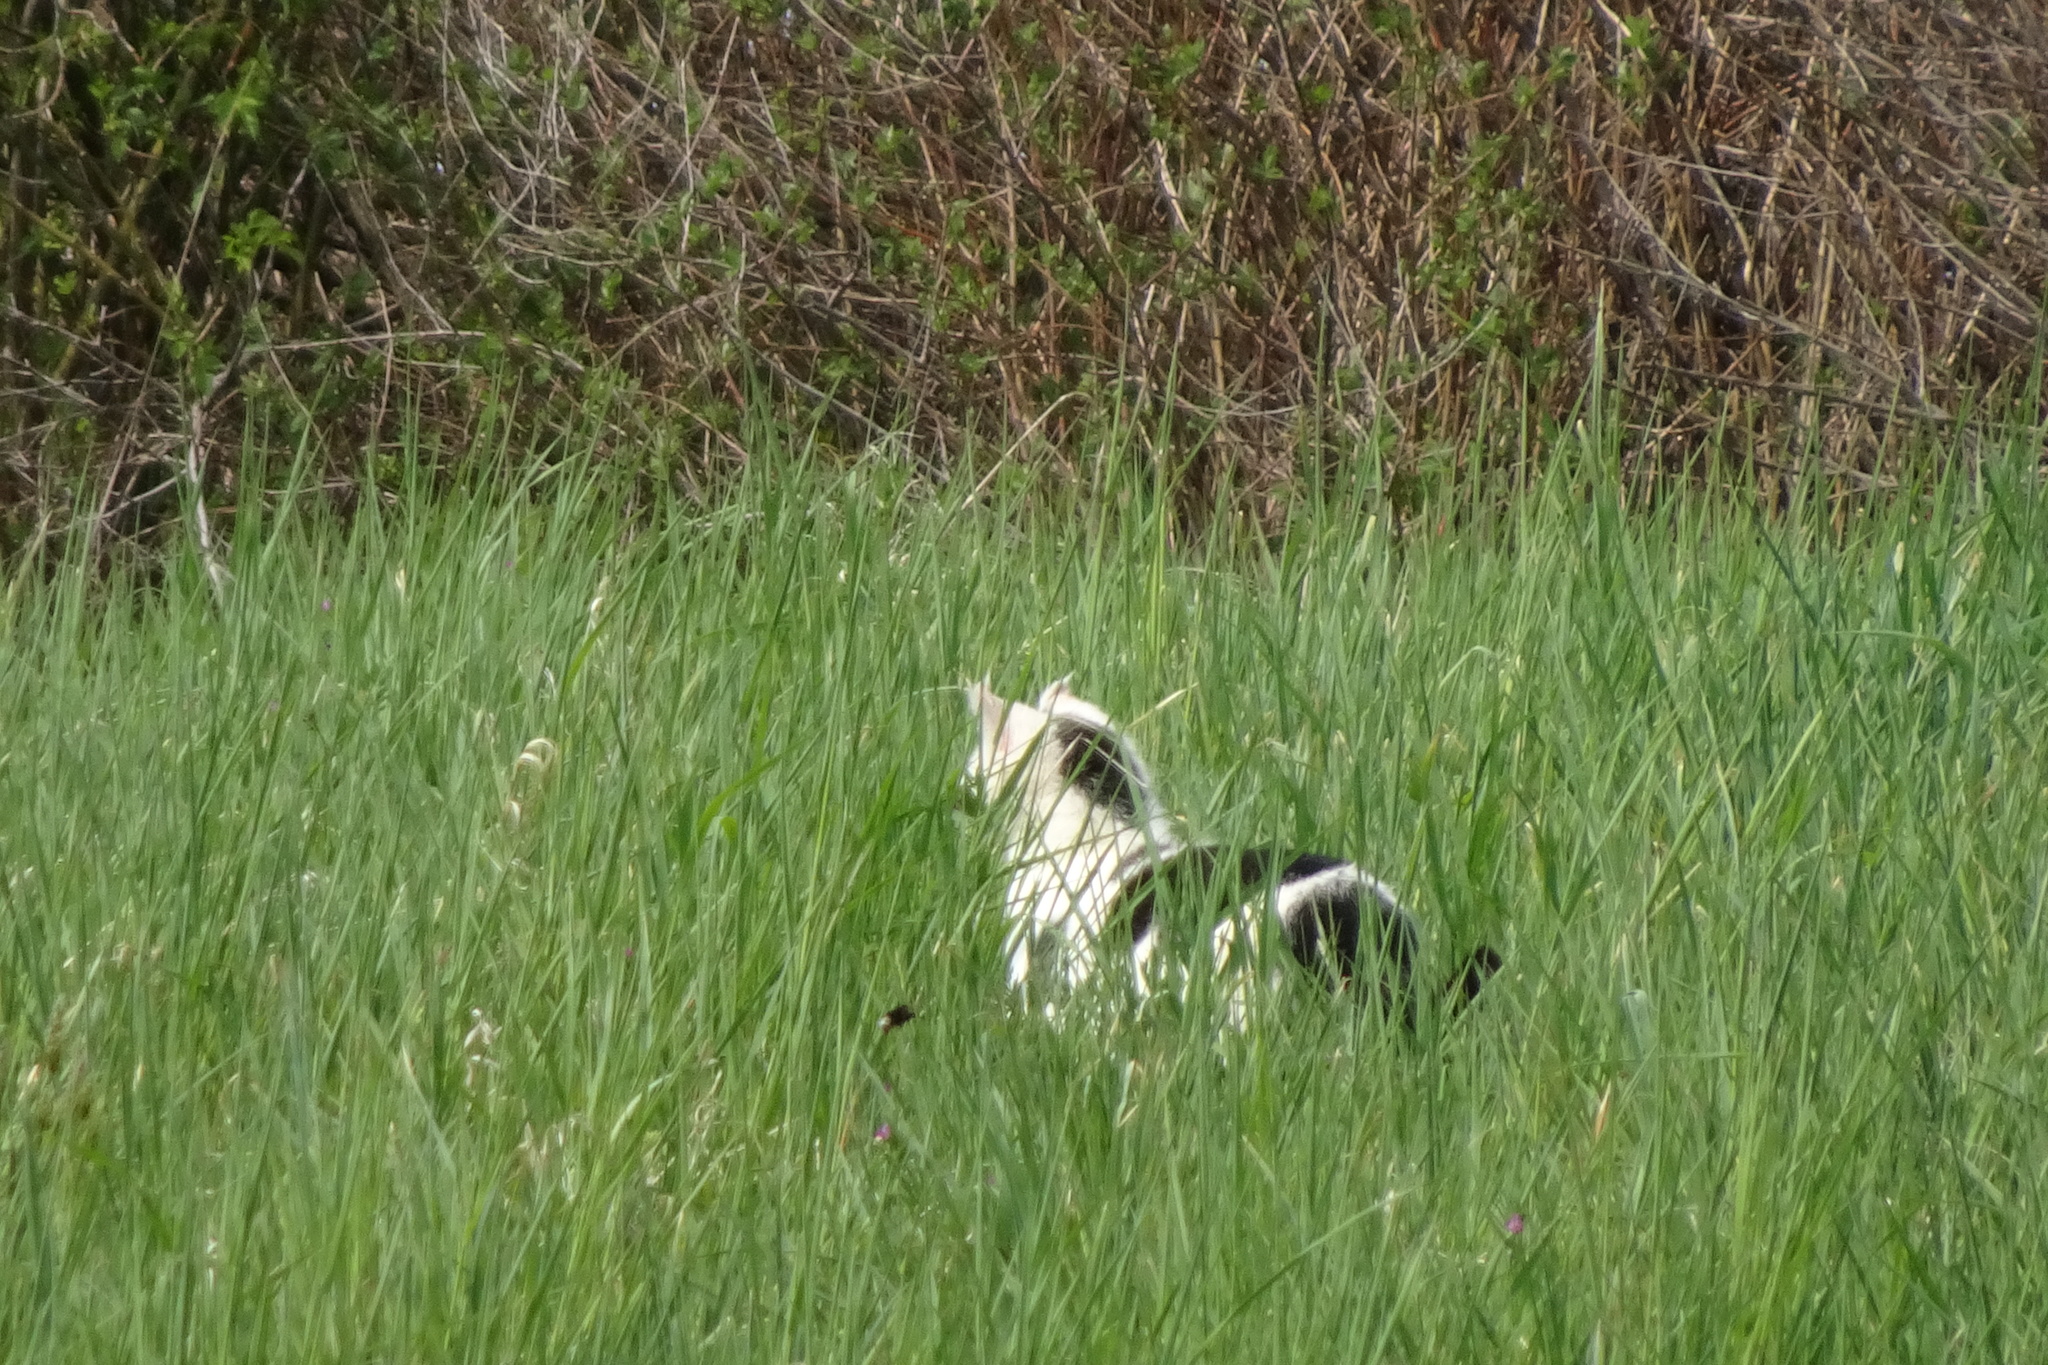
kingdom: Animalia
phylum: Chordata
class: Mammalia
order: Carnivora
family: Felidae
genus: Felis
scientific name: Felis catus
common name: Domestic cat
